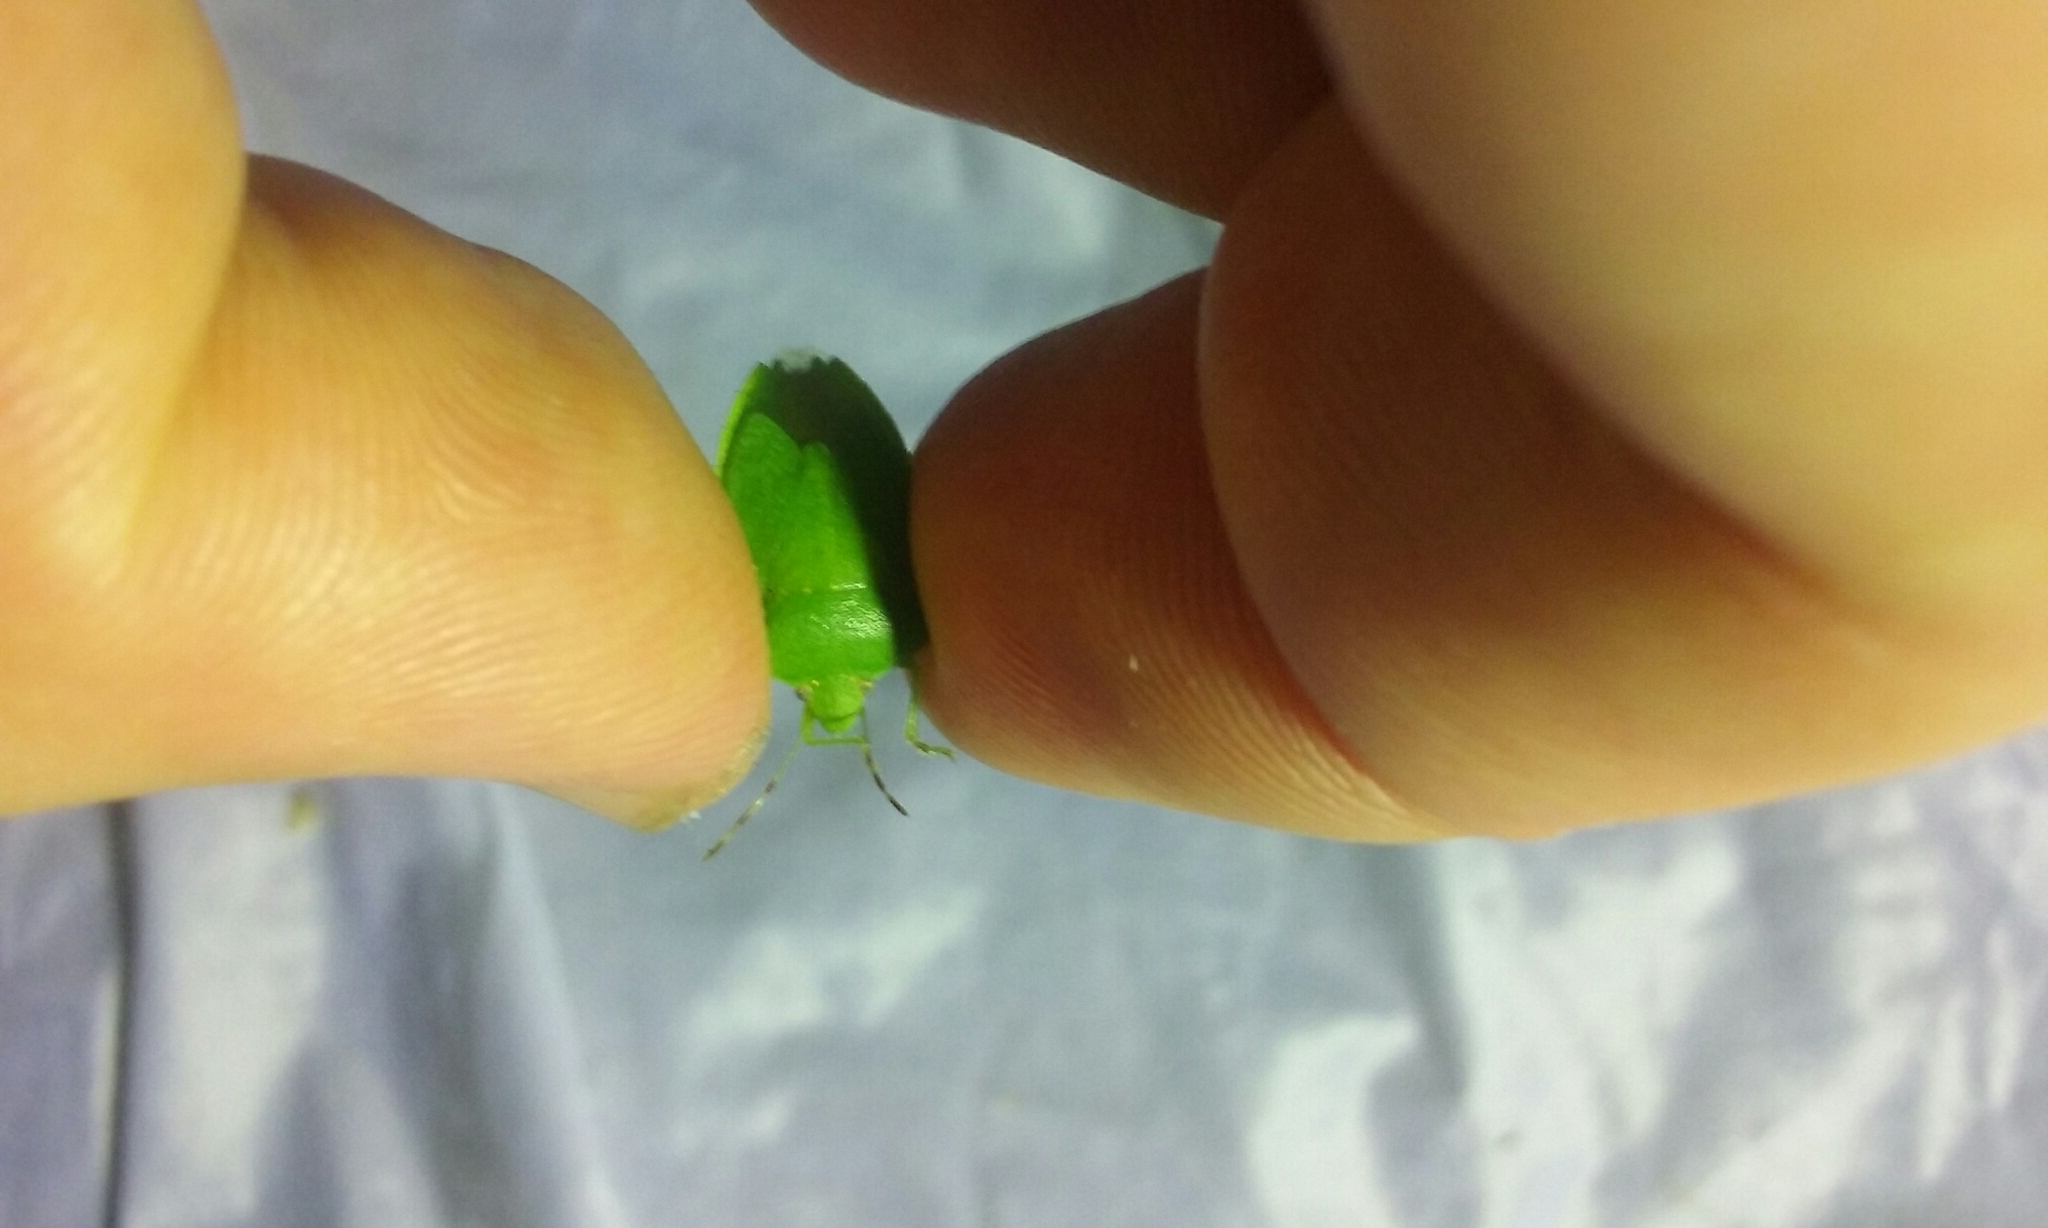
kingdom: Animalia
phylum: Arthropoda
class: Insecta
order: Hemiptera
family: Pentatomidae
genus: Nezara
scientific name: Nezara viridula
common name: Southern green stink bug
